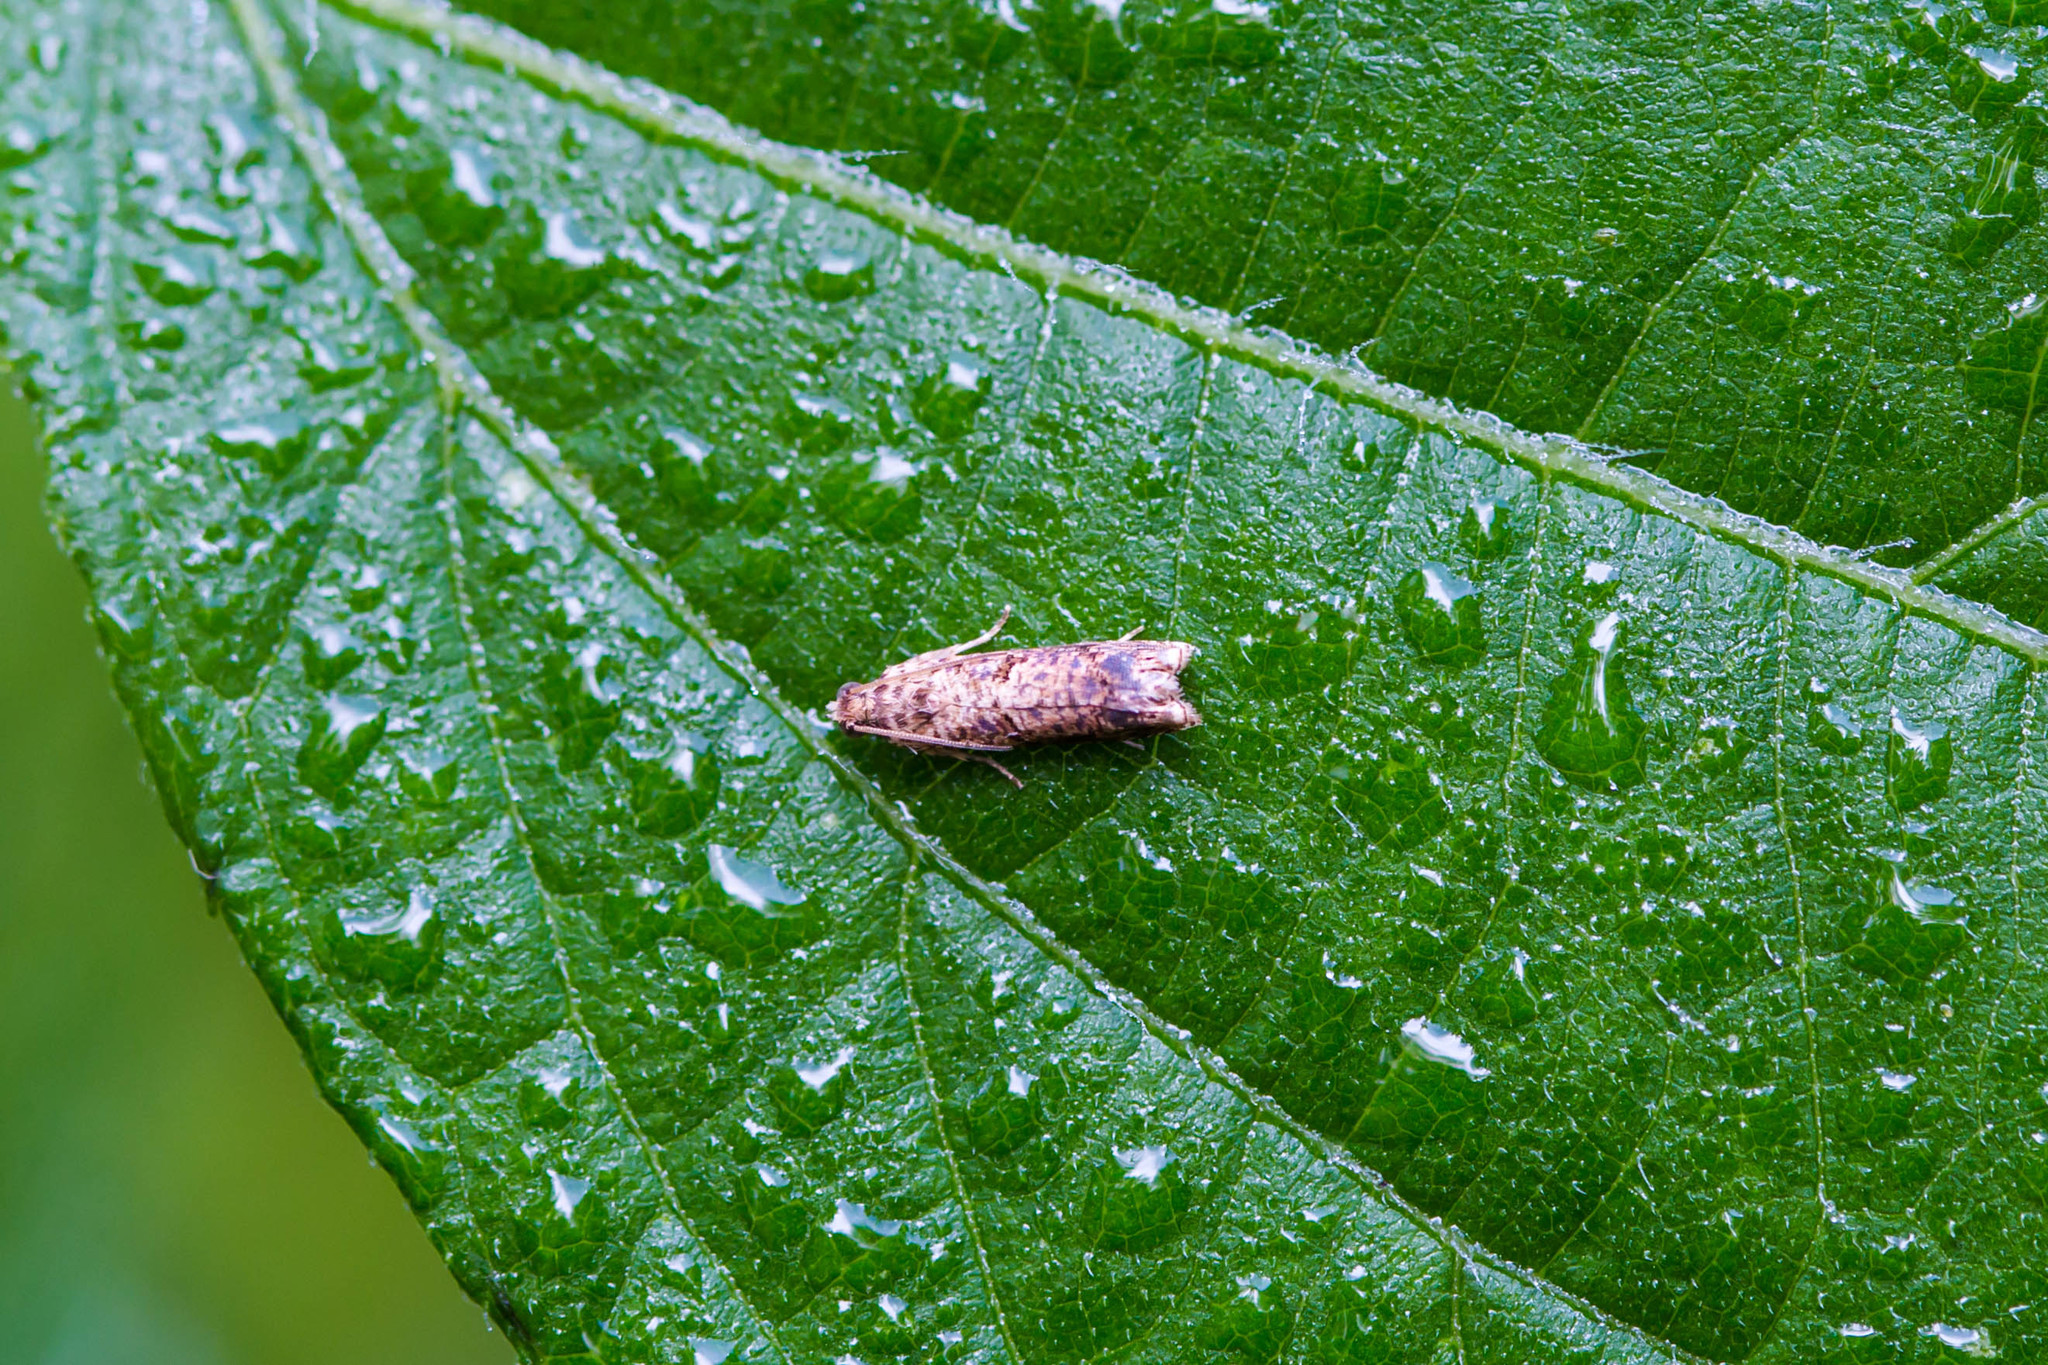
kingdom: Animalia
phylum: Arthropoda
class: Insecta
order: Lepidoptera
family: Tortricidae
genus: Episimus
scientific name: Episimus argutana
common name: Sumac leaftier moth
